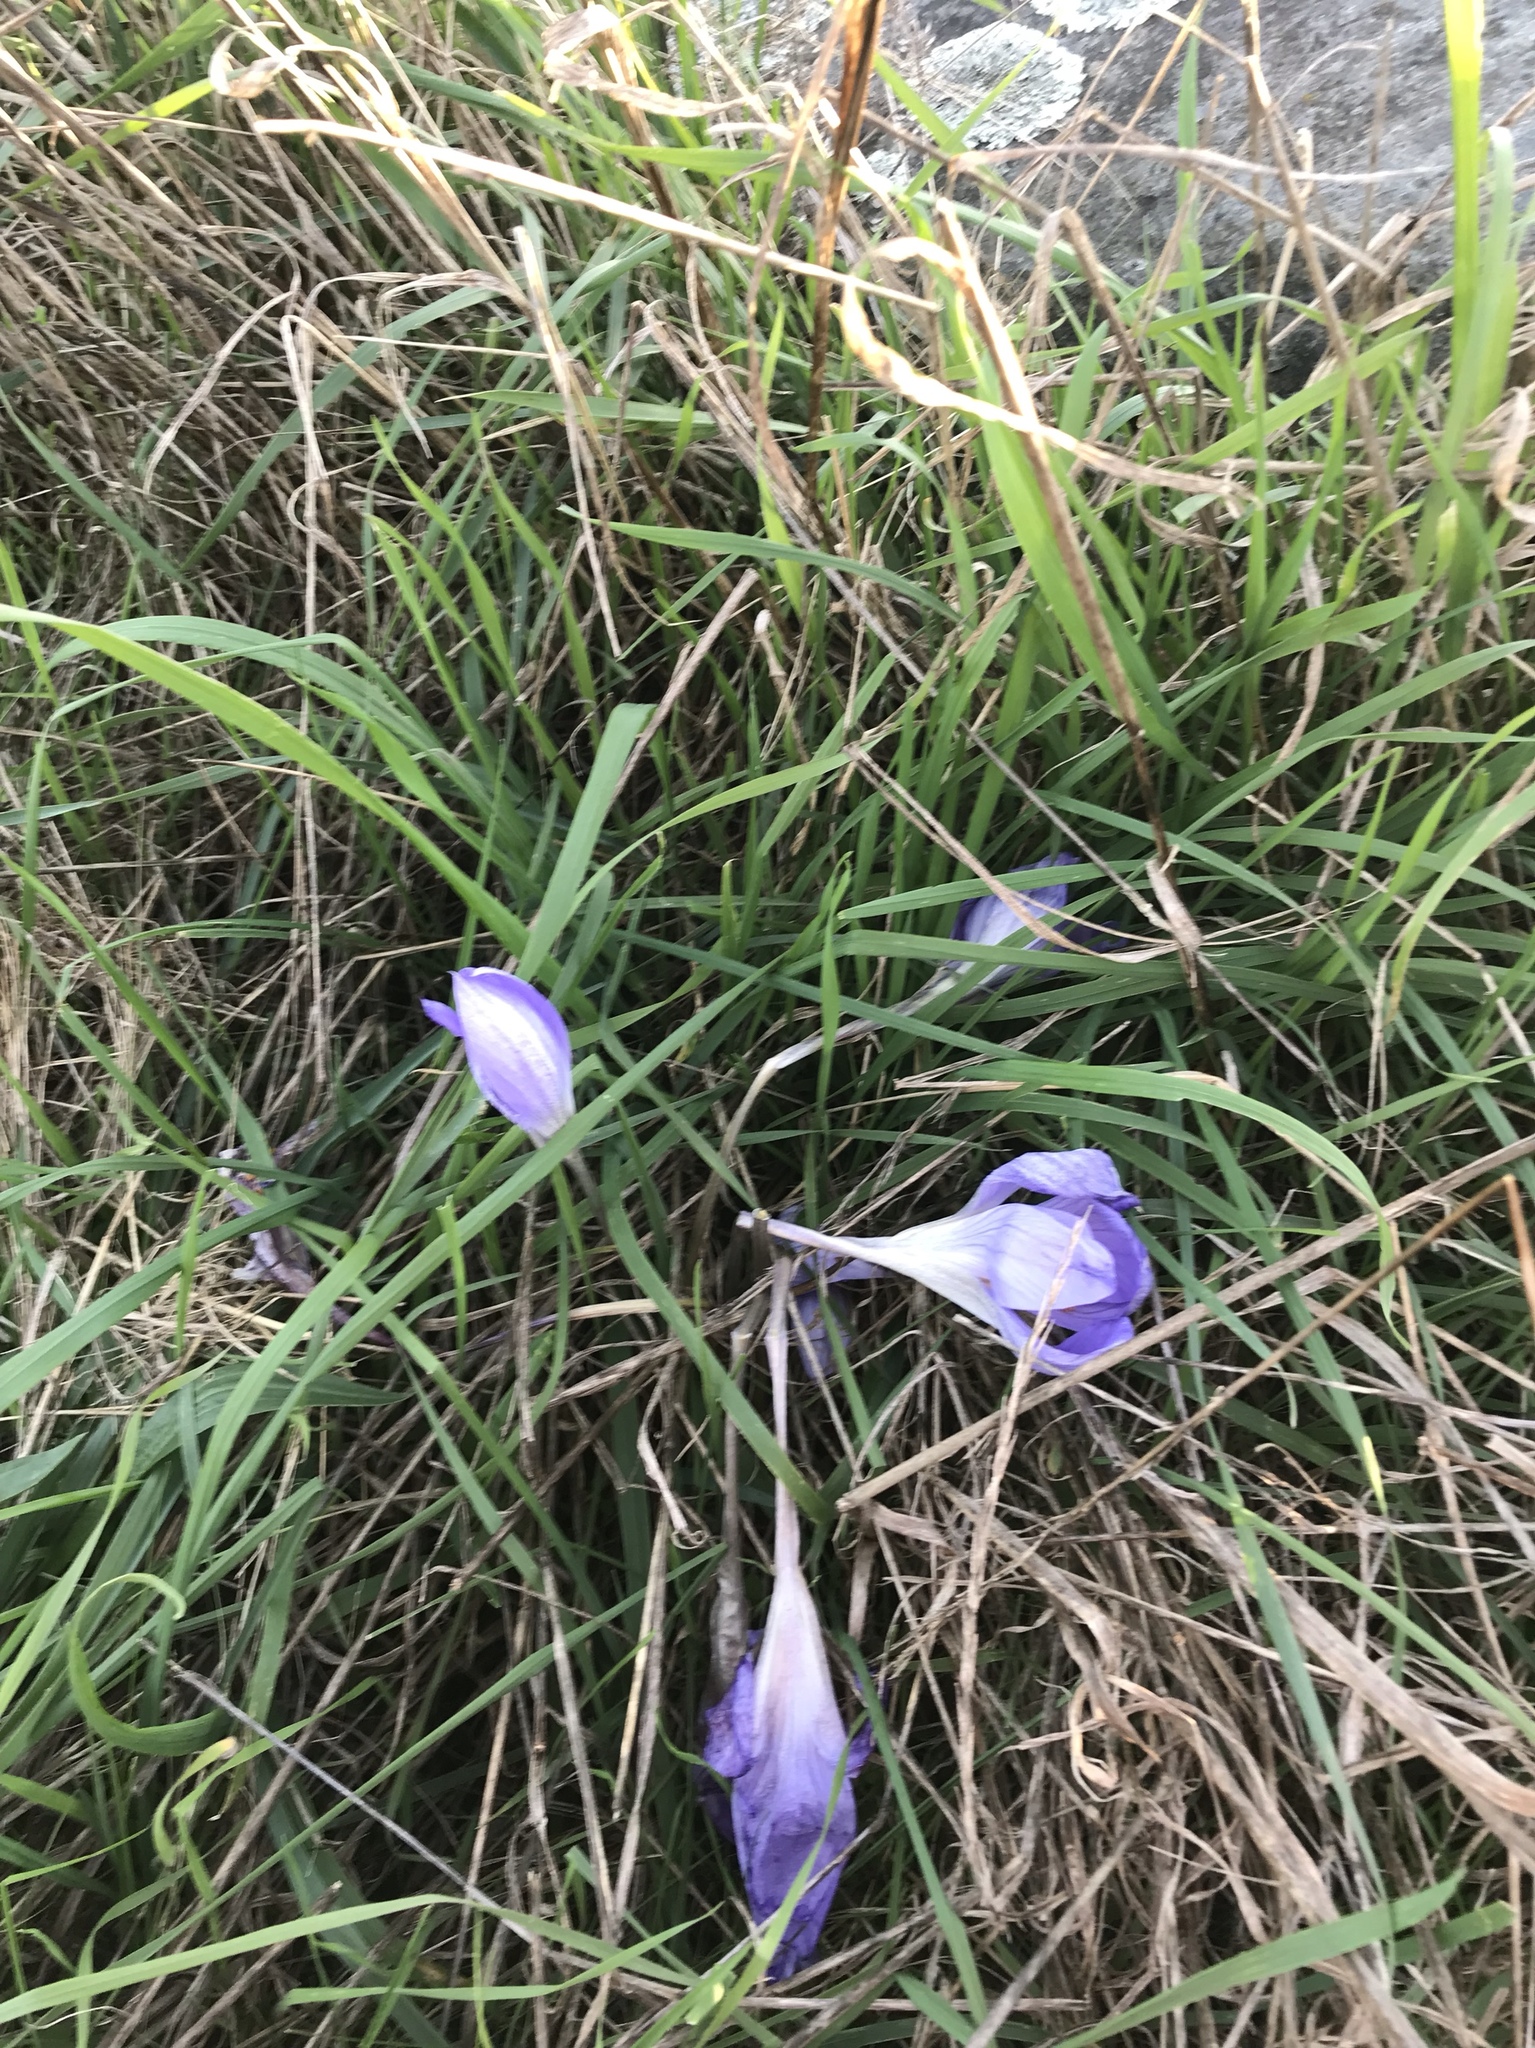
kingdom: Plantae
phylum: Tracheophyta
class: Liliopsida
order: Asparagales
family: Iridaceae
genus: Crocus
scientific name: Crocus speciosus
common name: Bieberstein's crocus
